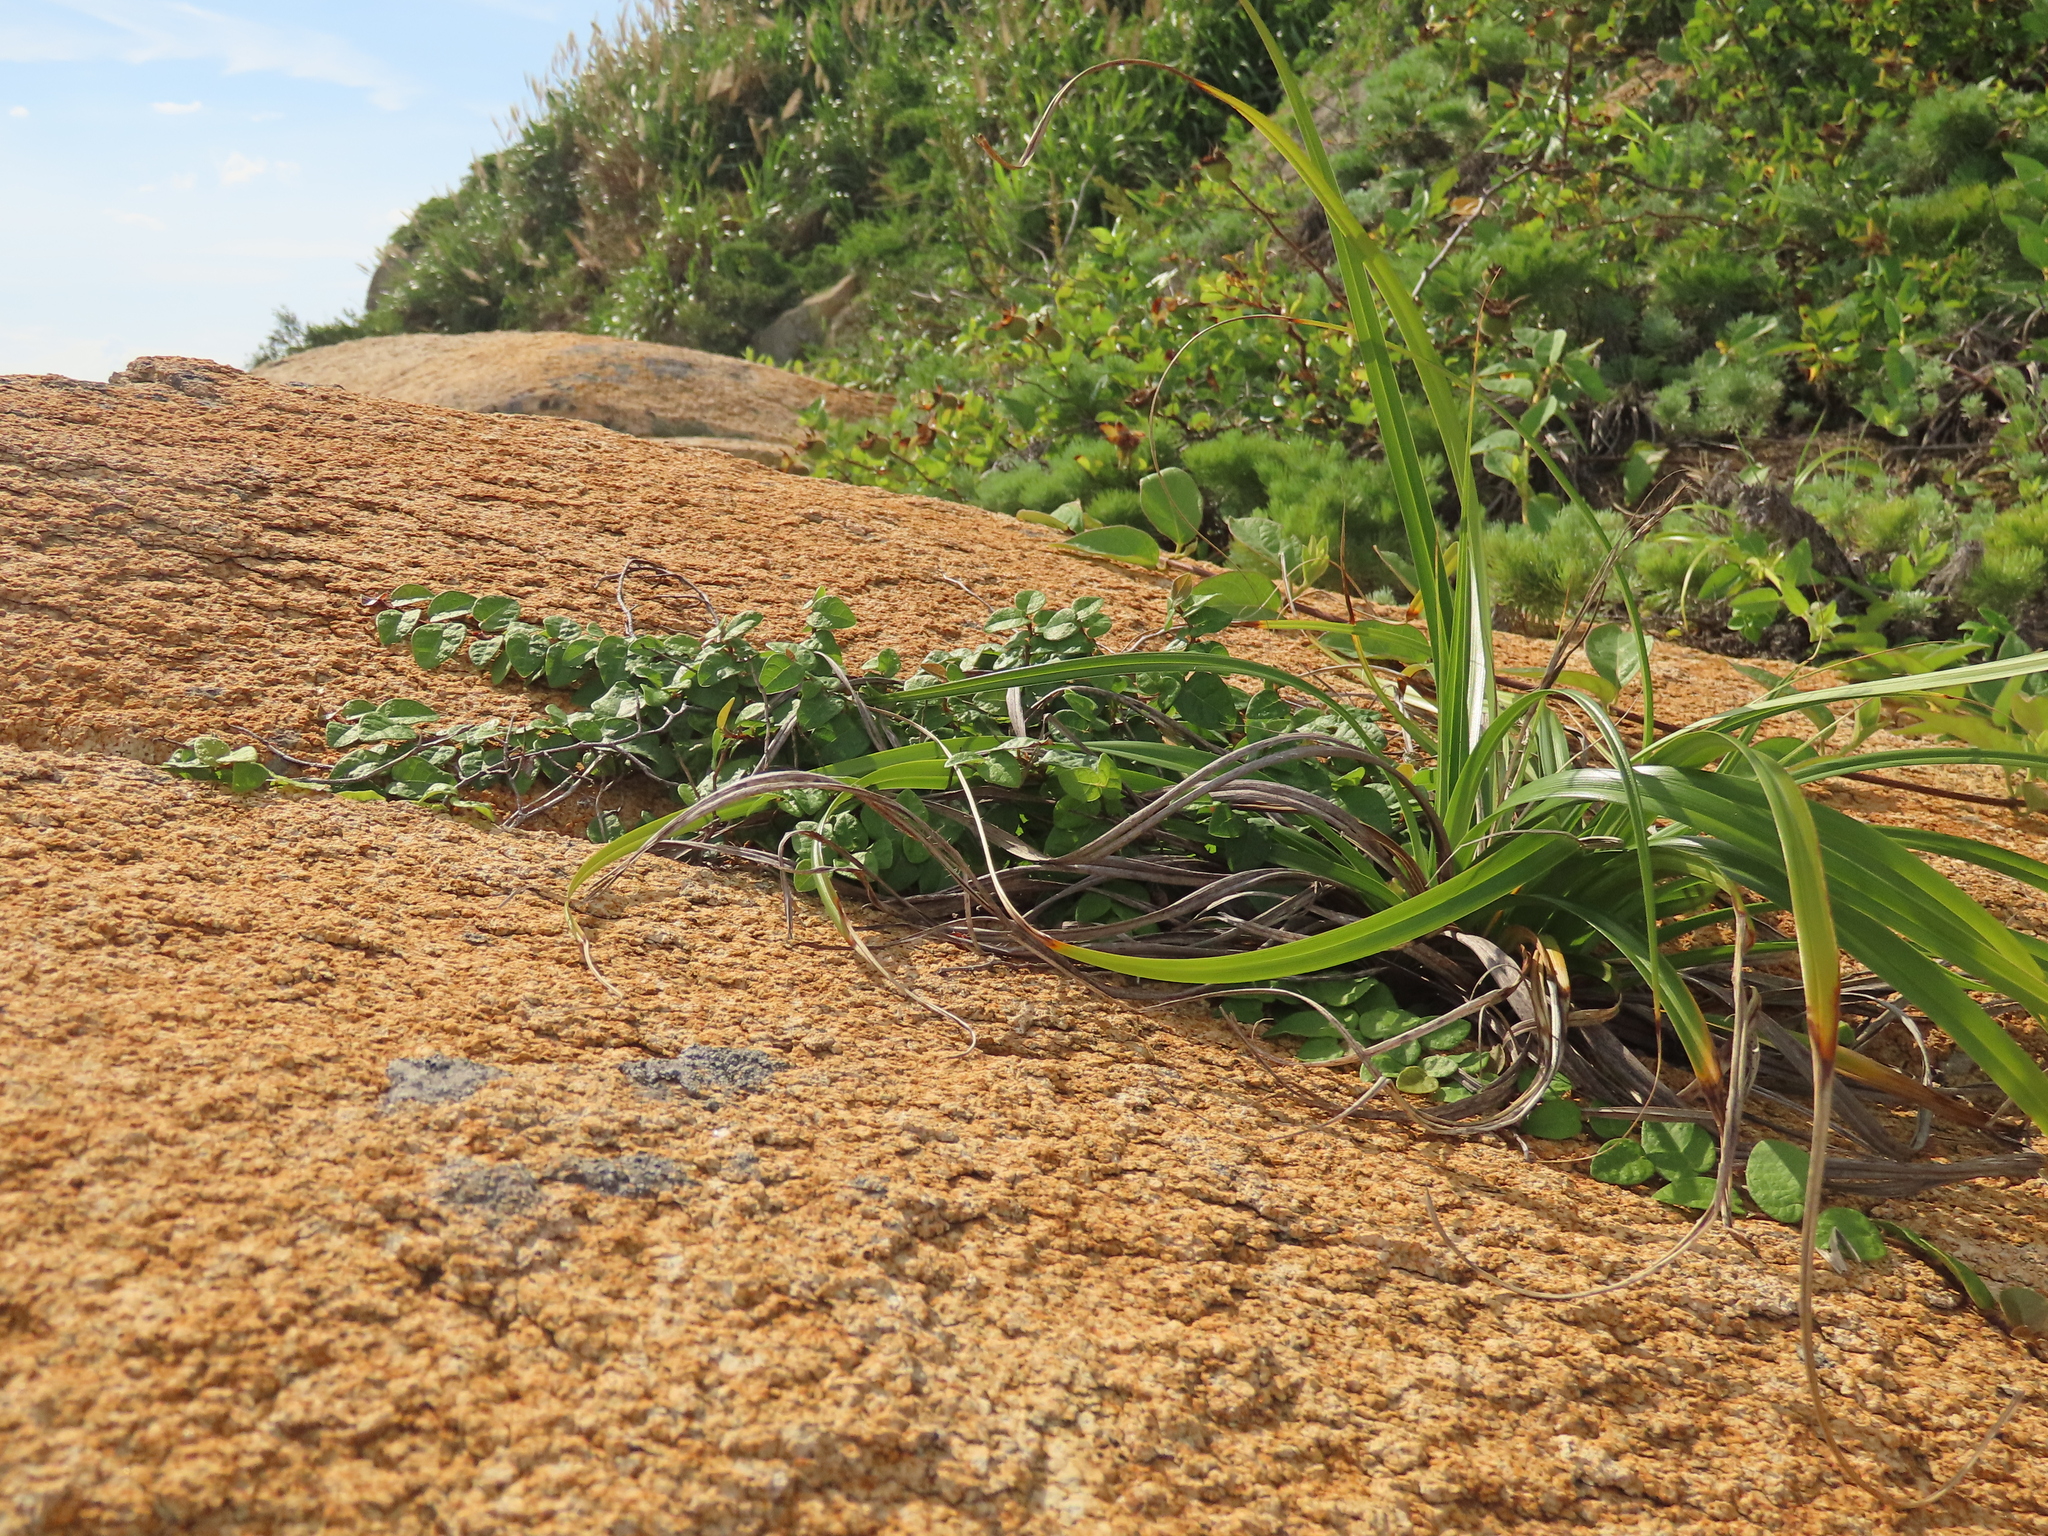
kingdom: Plantae
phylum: Tracheophyta
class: Magnoliopsida
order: Rosales
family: Moraceae
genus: Ficus
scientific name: Ficus pumila
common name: Climbingfig
